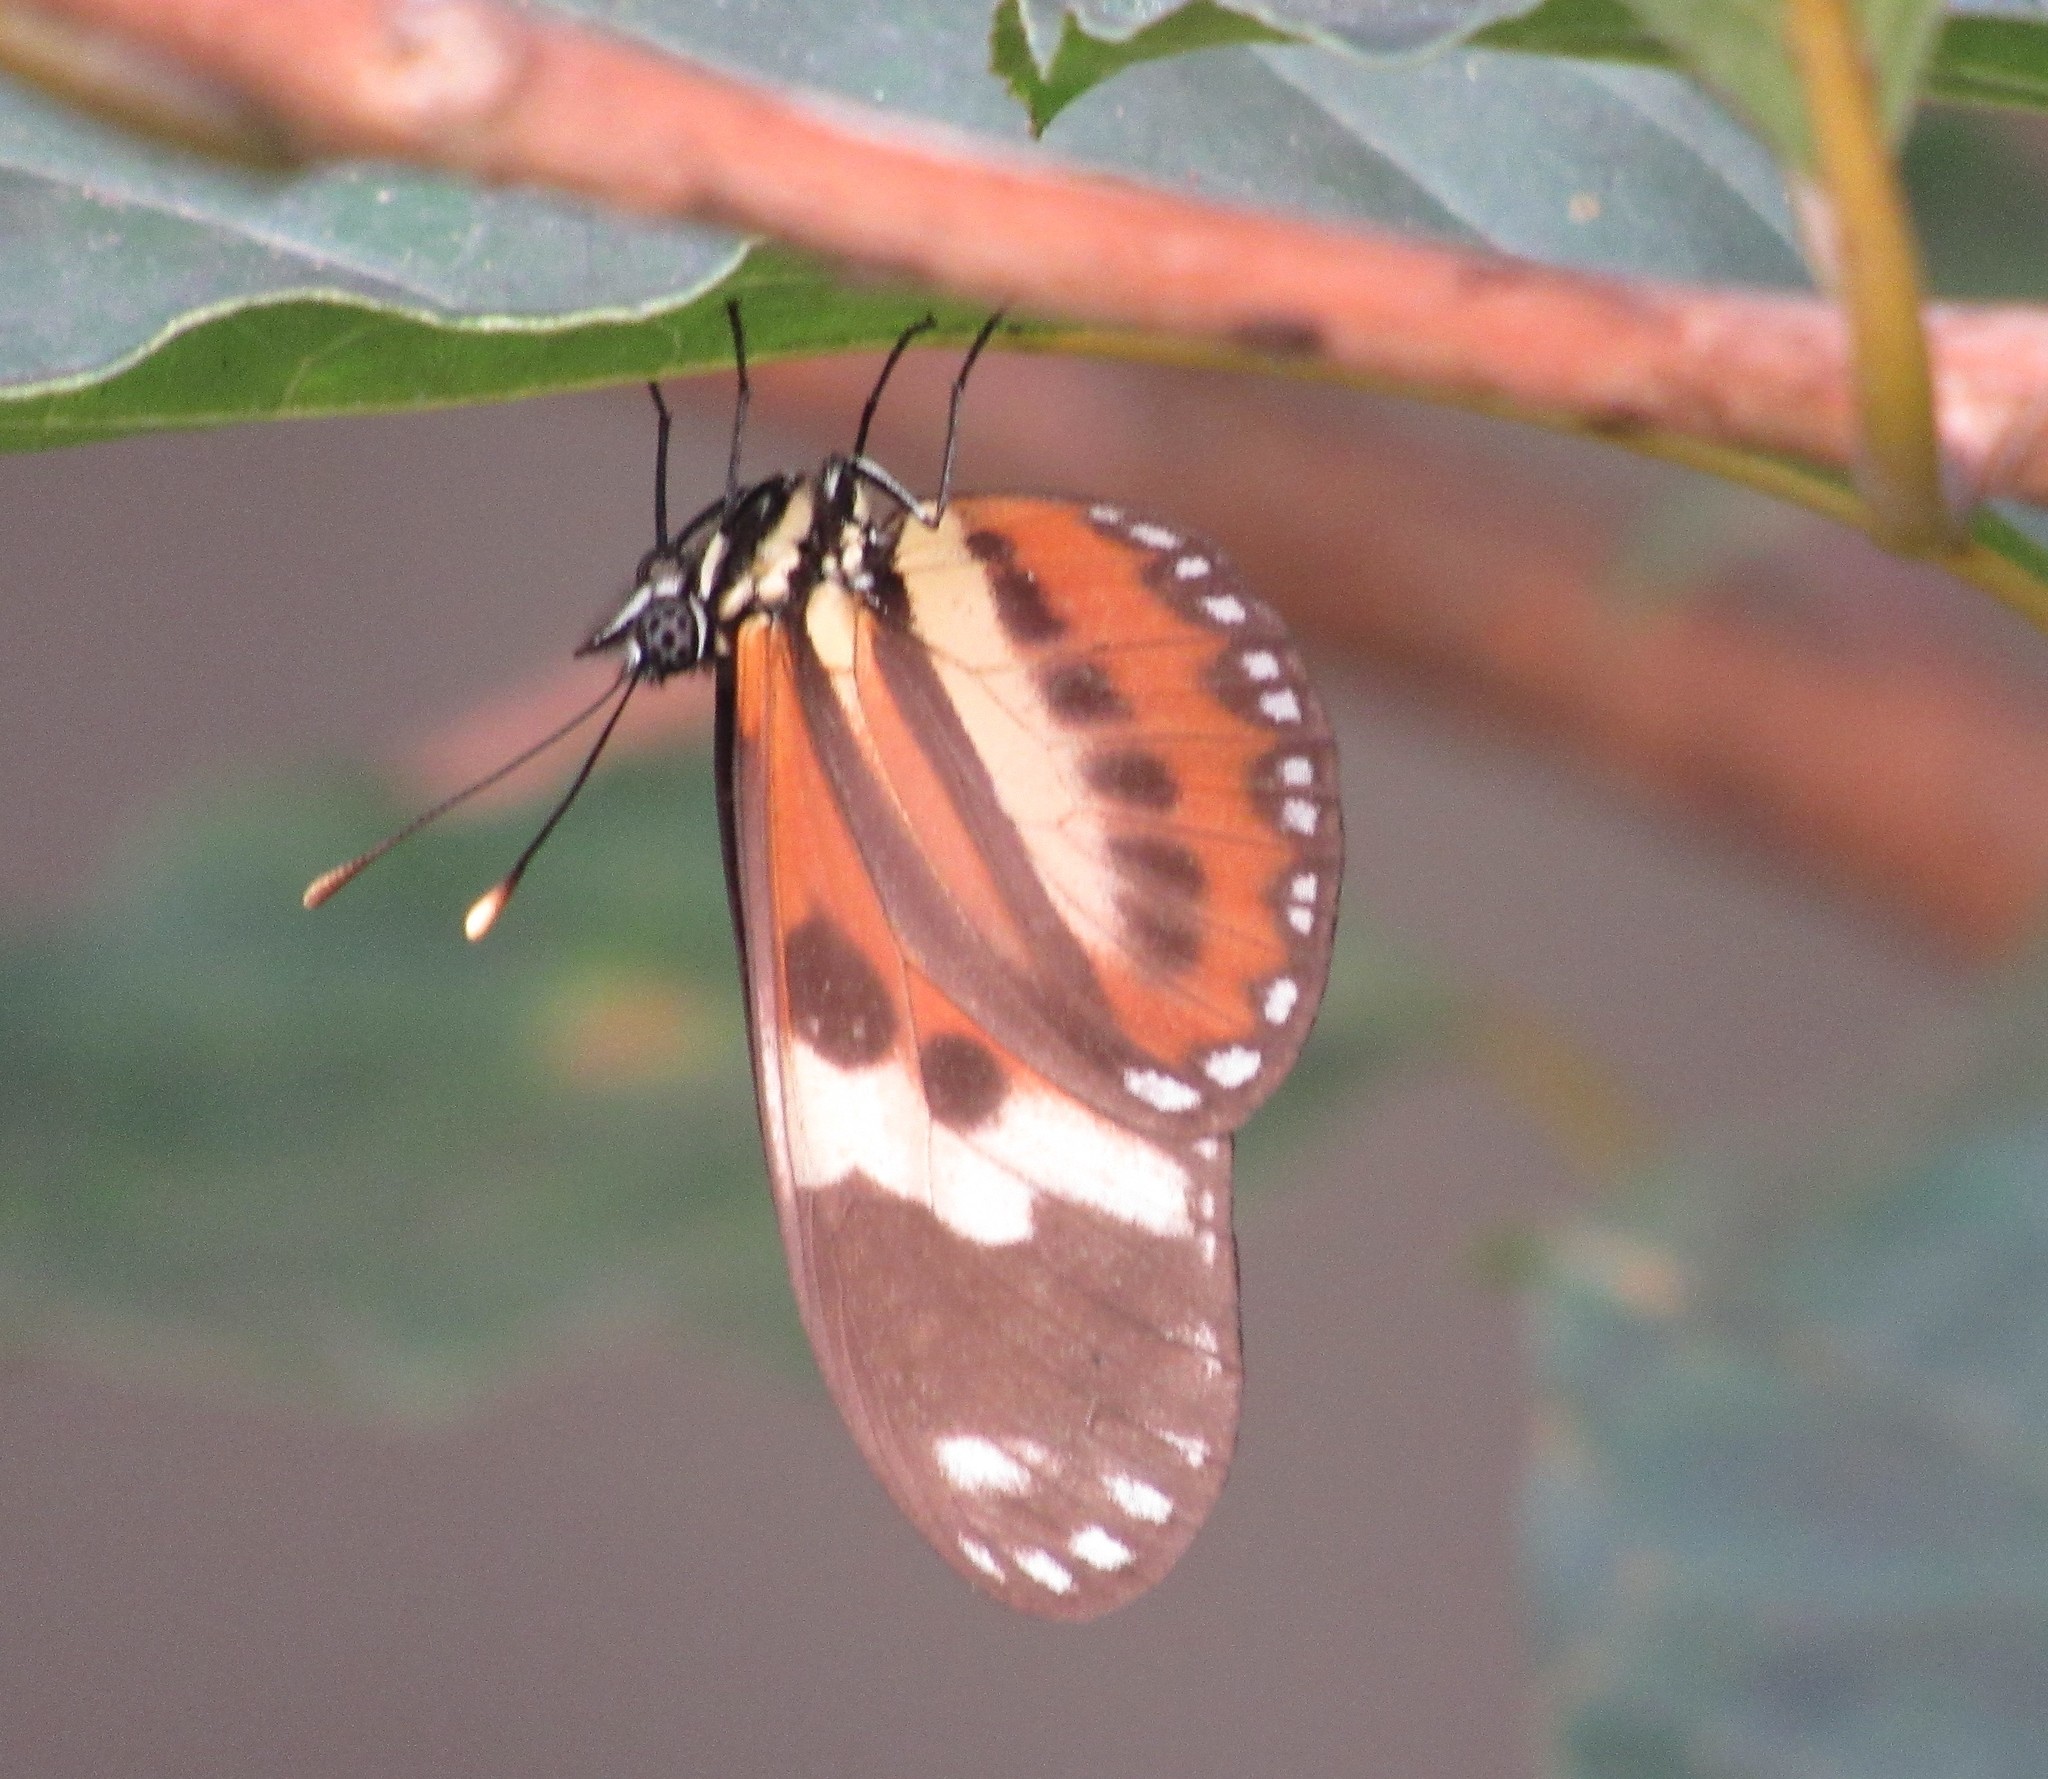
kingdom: Animalia
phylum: Arthropoda
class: Insecta
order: Lepidoptera
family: Nymphalidae
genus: Eueides
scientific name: Eueides isabella
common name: Isabella's longwing
